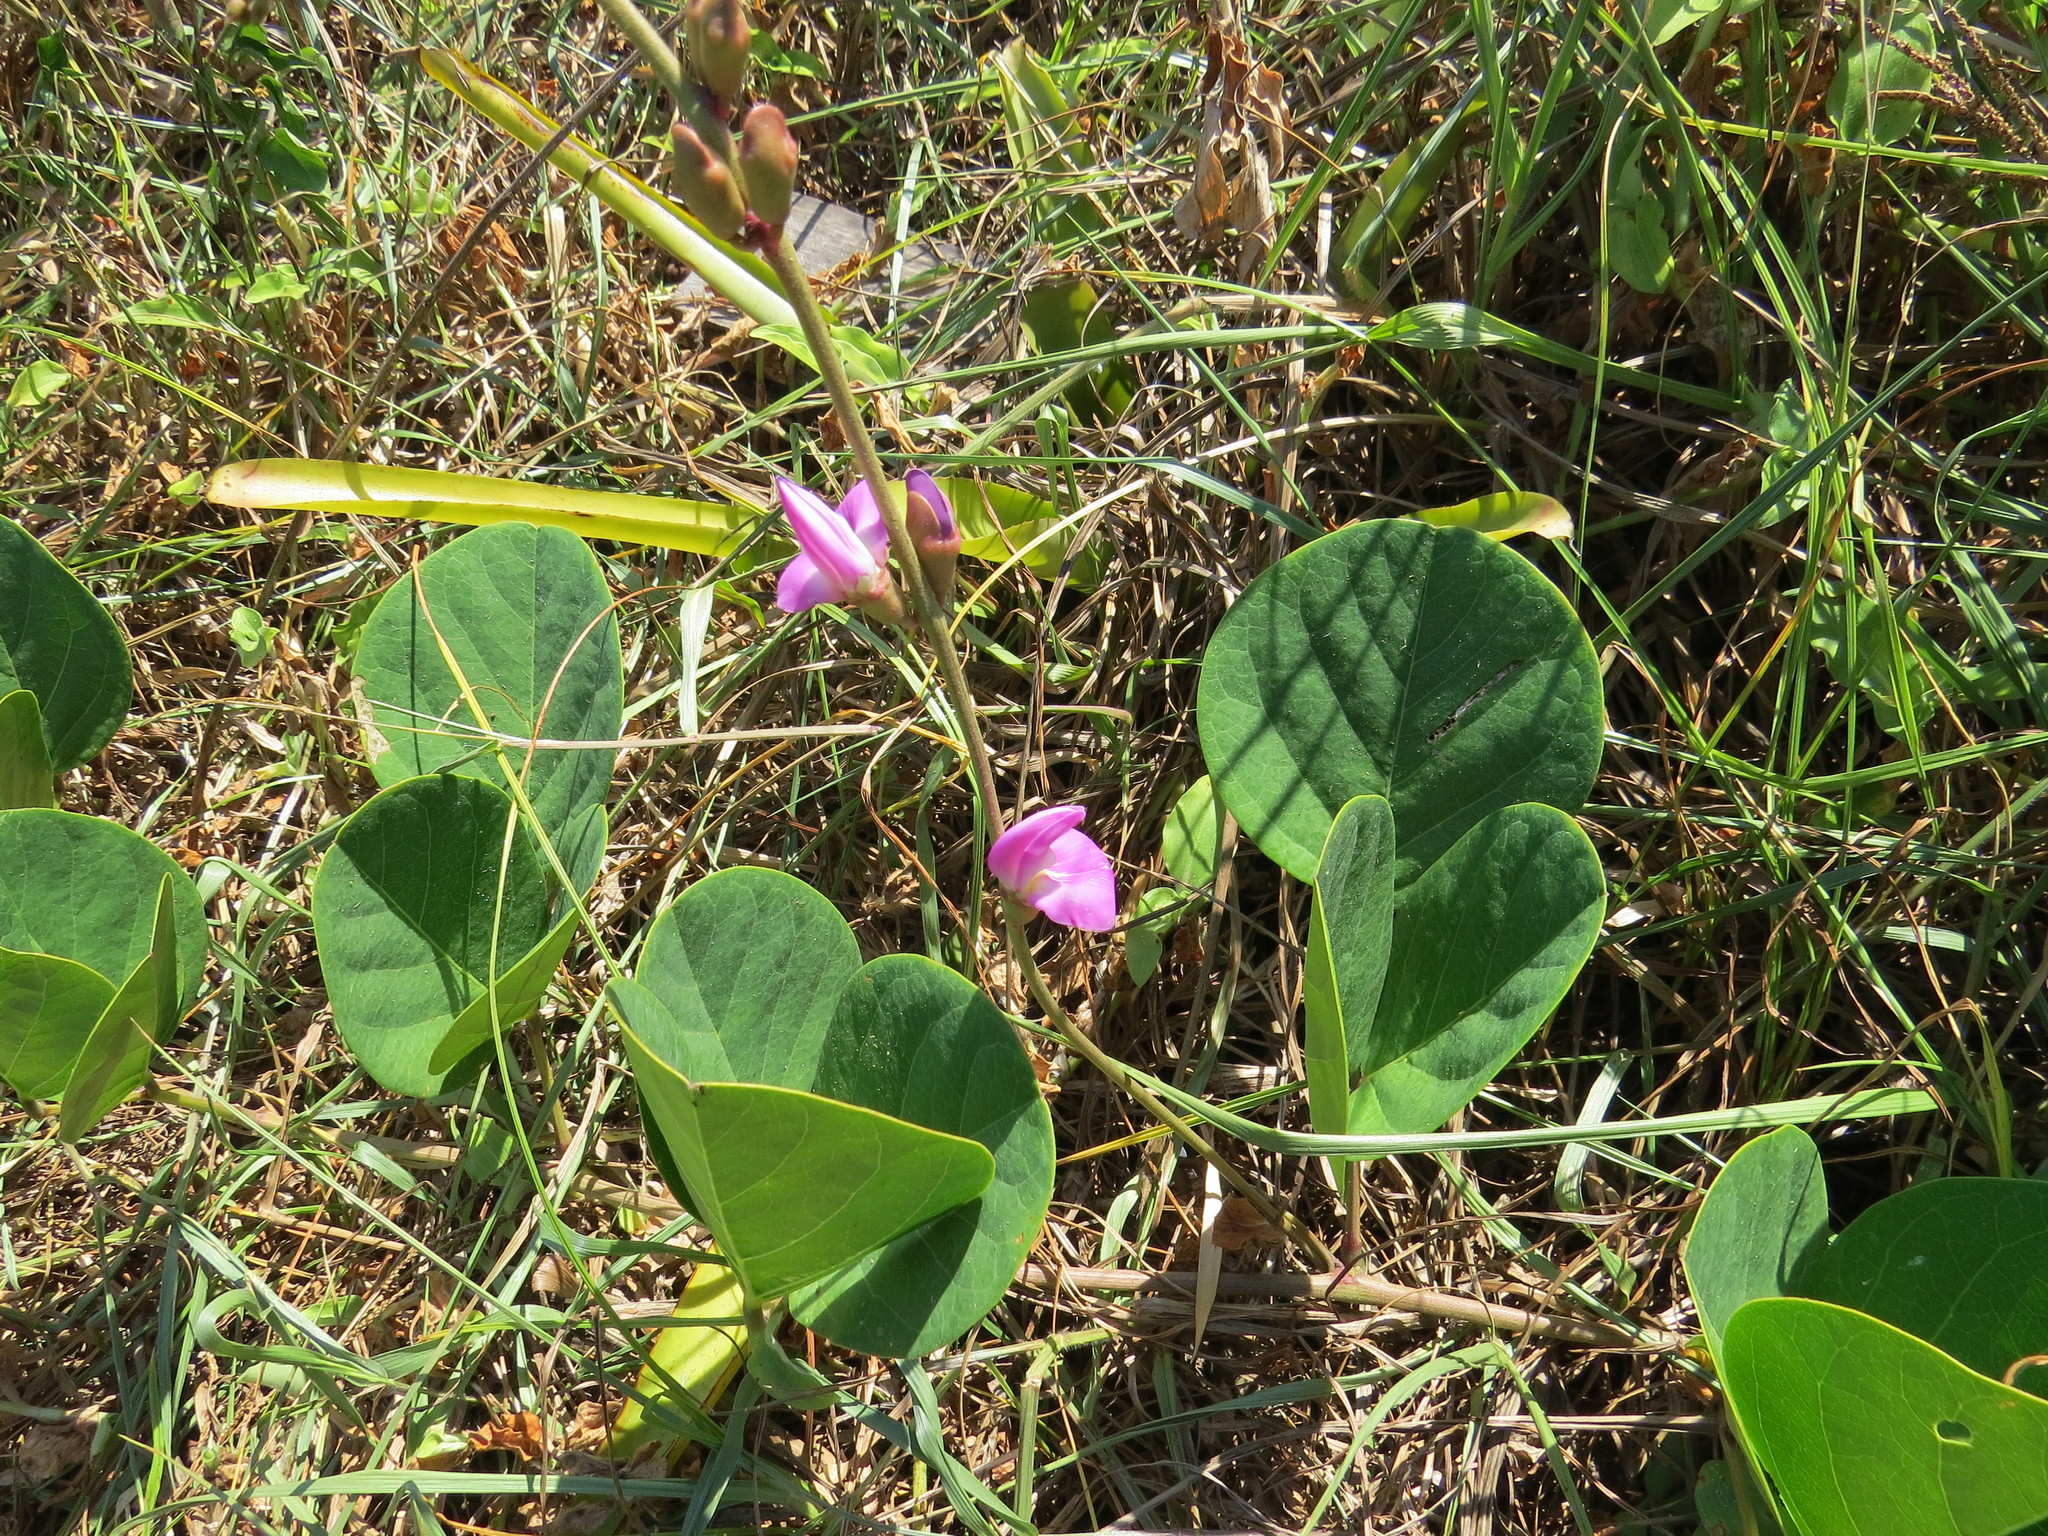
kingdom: Plantae
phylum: Tracheophyta
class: Magnoliopsida
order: Fabales
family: Fabaceae
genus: Canavalia
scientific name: Canavalia rosea
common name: Beach-bean
